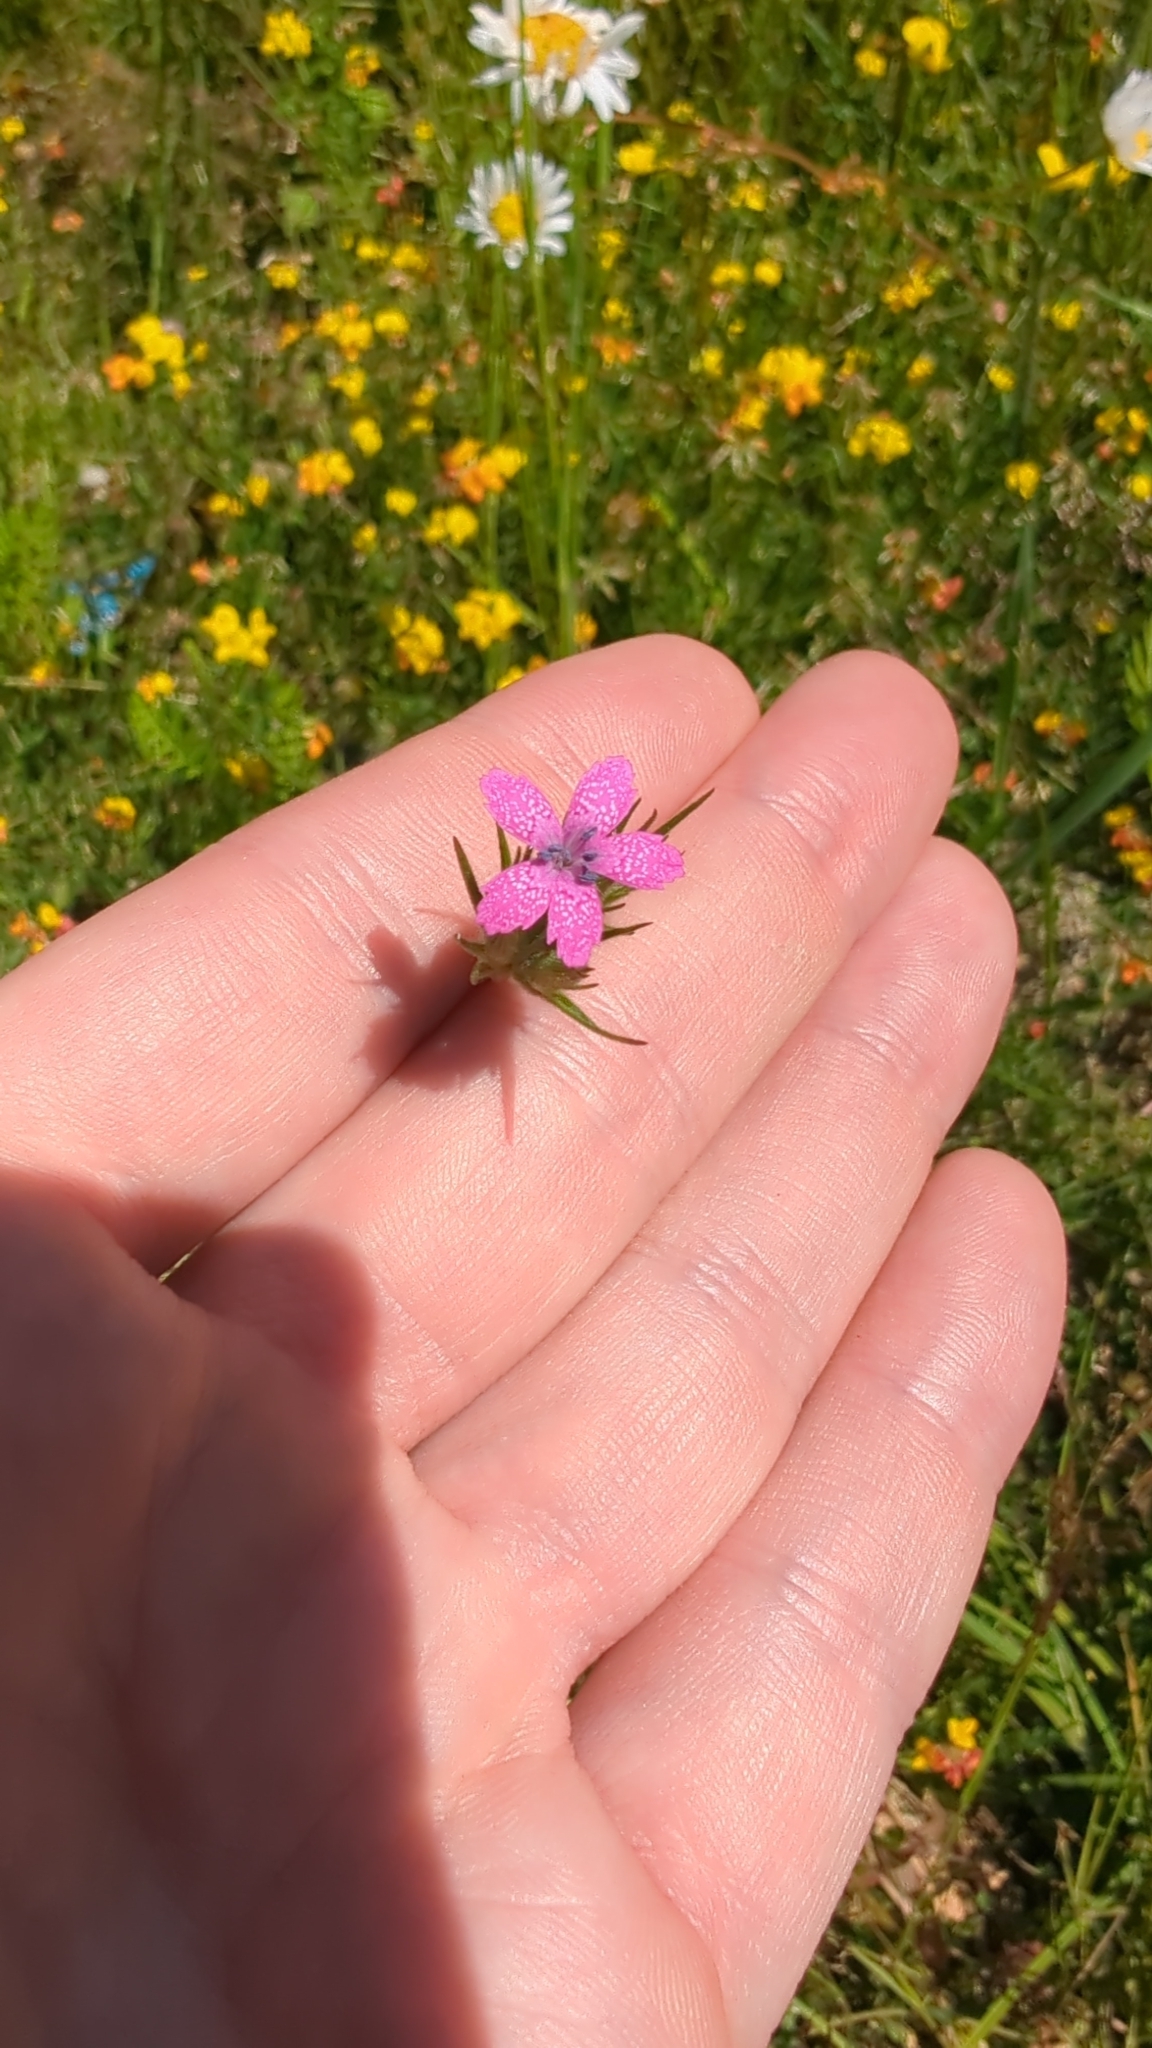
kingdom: Plantae
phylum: Tracheophyta
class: Magnoliopsida
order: Caryophyllales
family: Caryophyllaceae
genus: Dianthus
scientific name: Dianthus armeria
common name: Deptford pink
